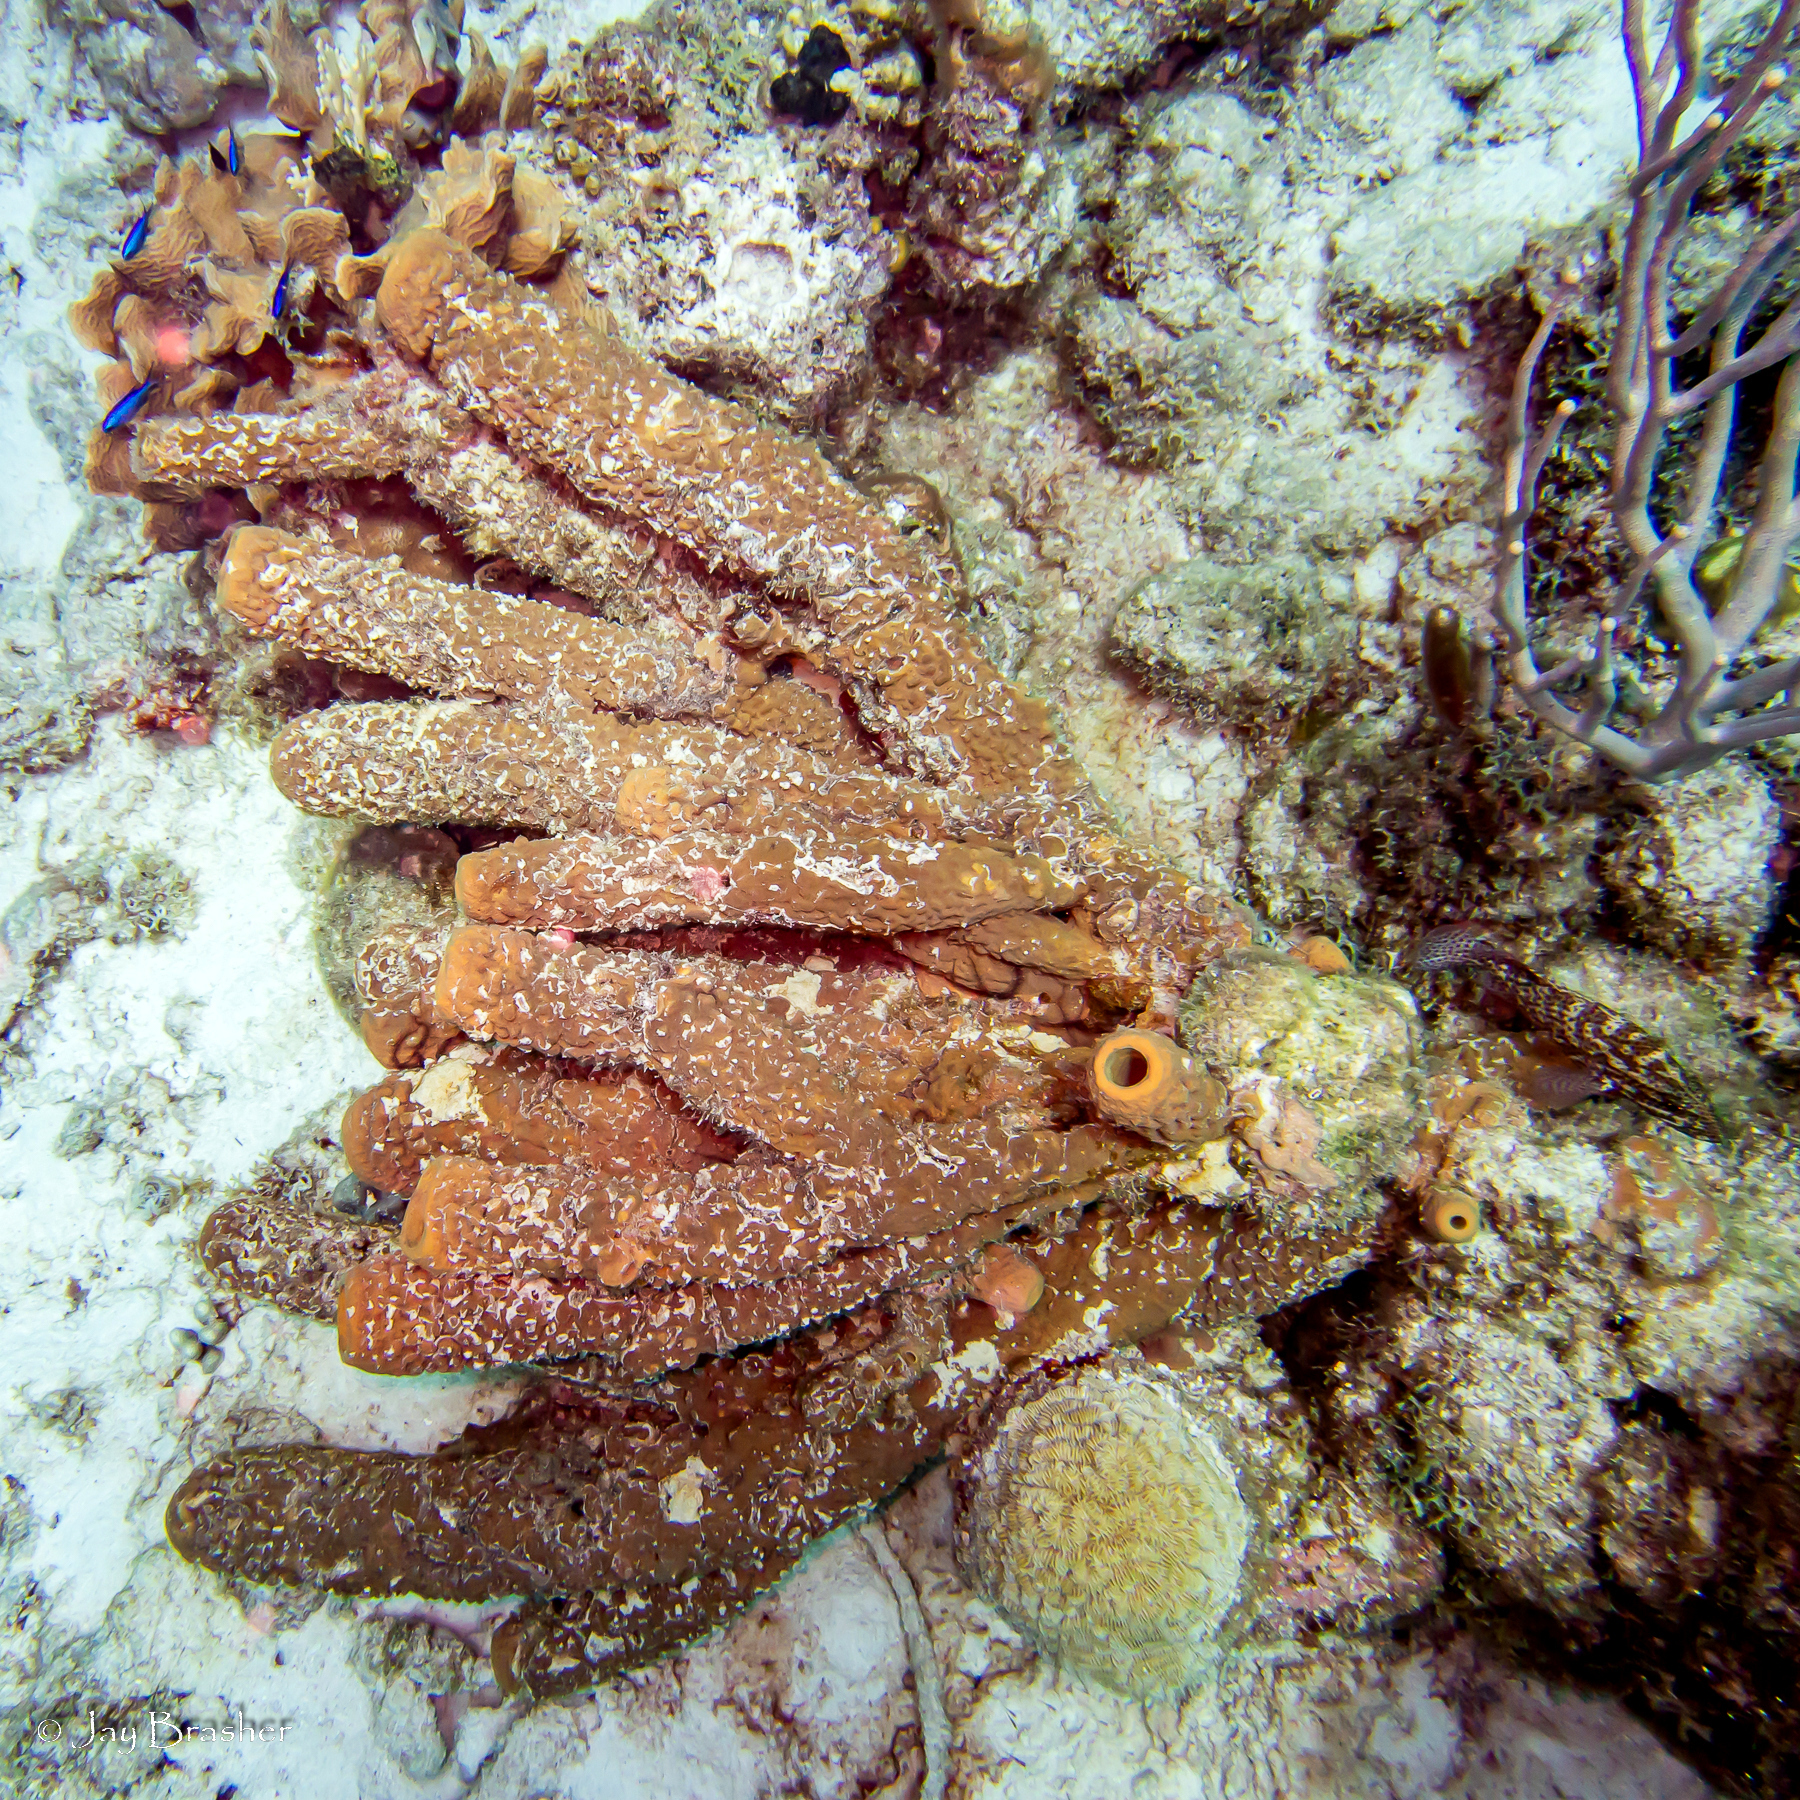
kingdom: Animalia
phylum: Porifera
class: Demospongiae
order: Verongiida
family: Aplysinidae
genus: Aplysina
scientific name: Aplysina archeri
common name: Stove-pipe sponge
